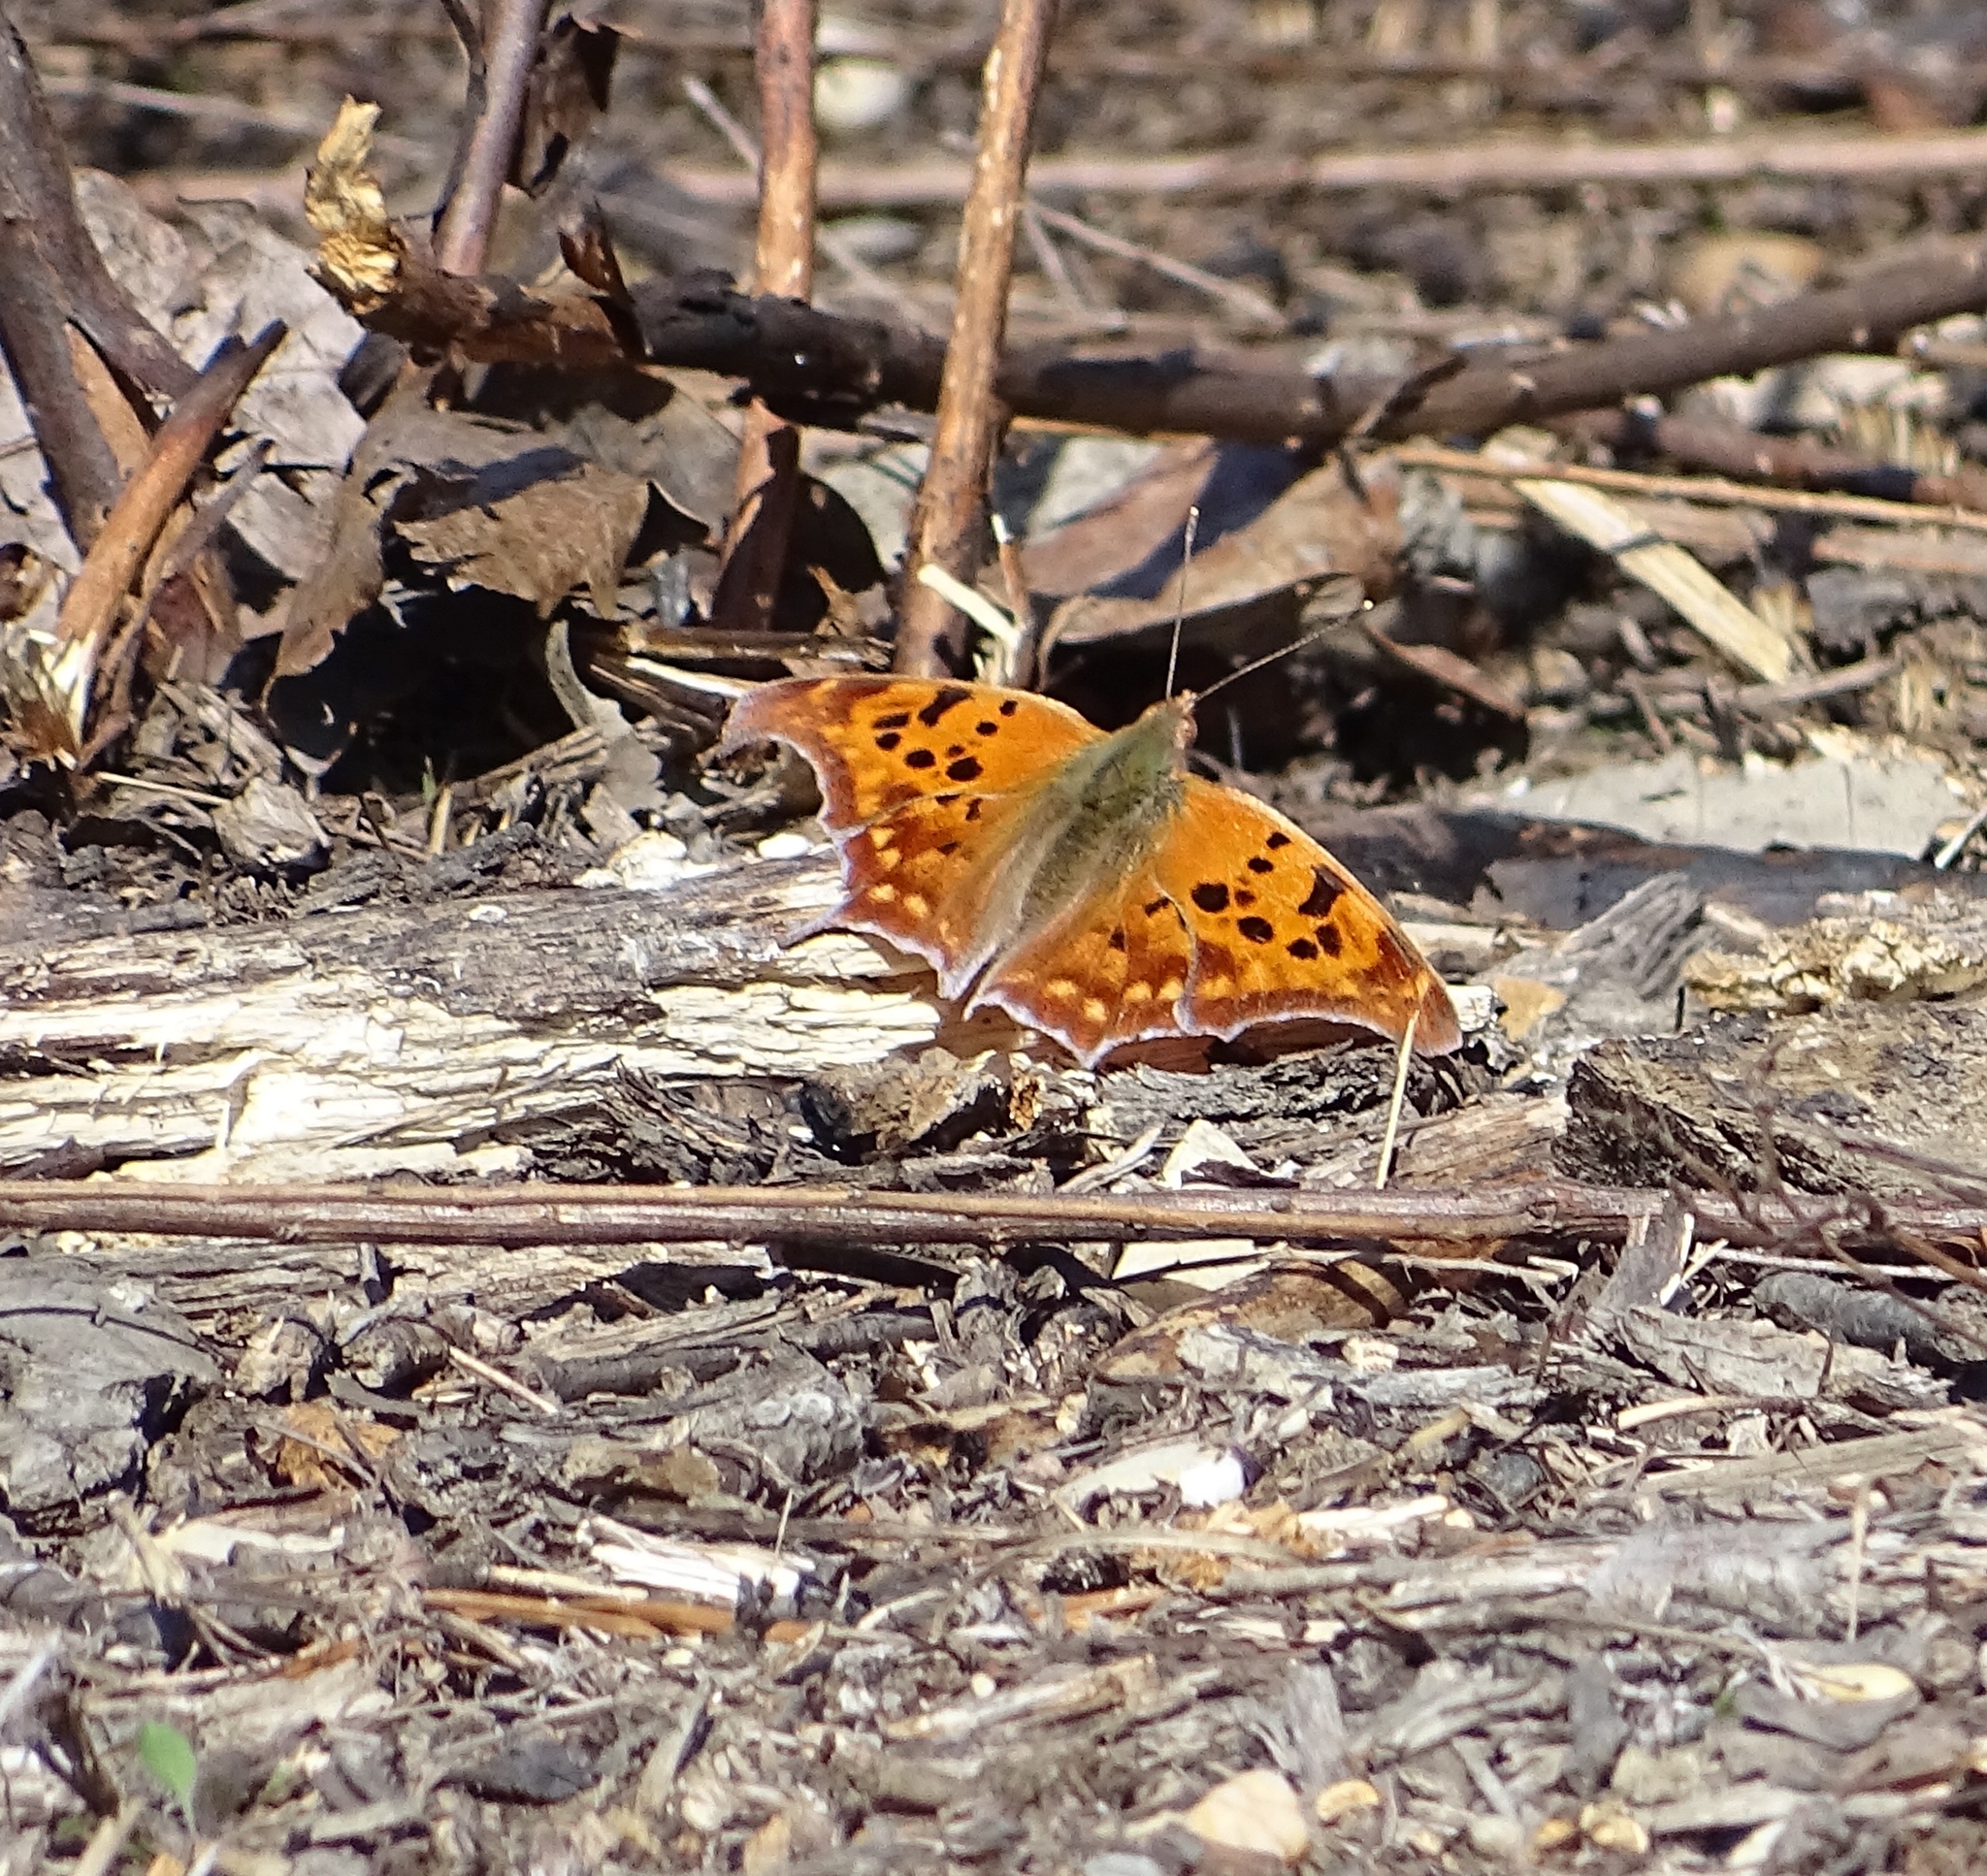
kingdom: Animalia
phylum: Arthropoda
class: Insecta
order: Lepidoptera
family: Nymphalidae
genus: Polygonia
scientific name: Polygonia interrogationis
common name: Question mark
